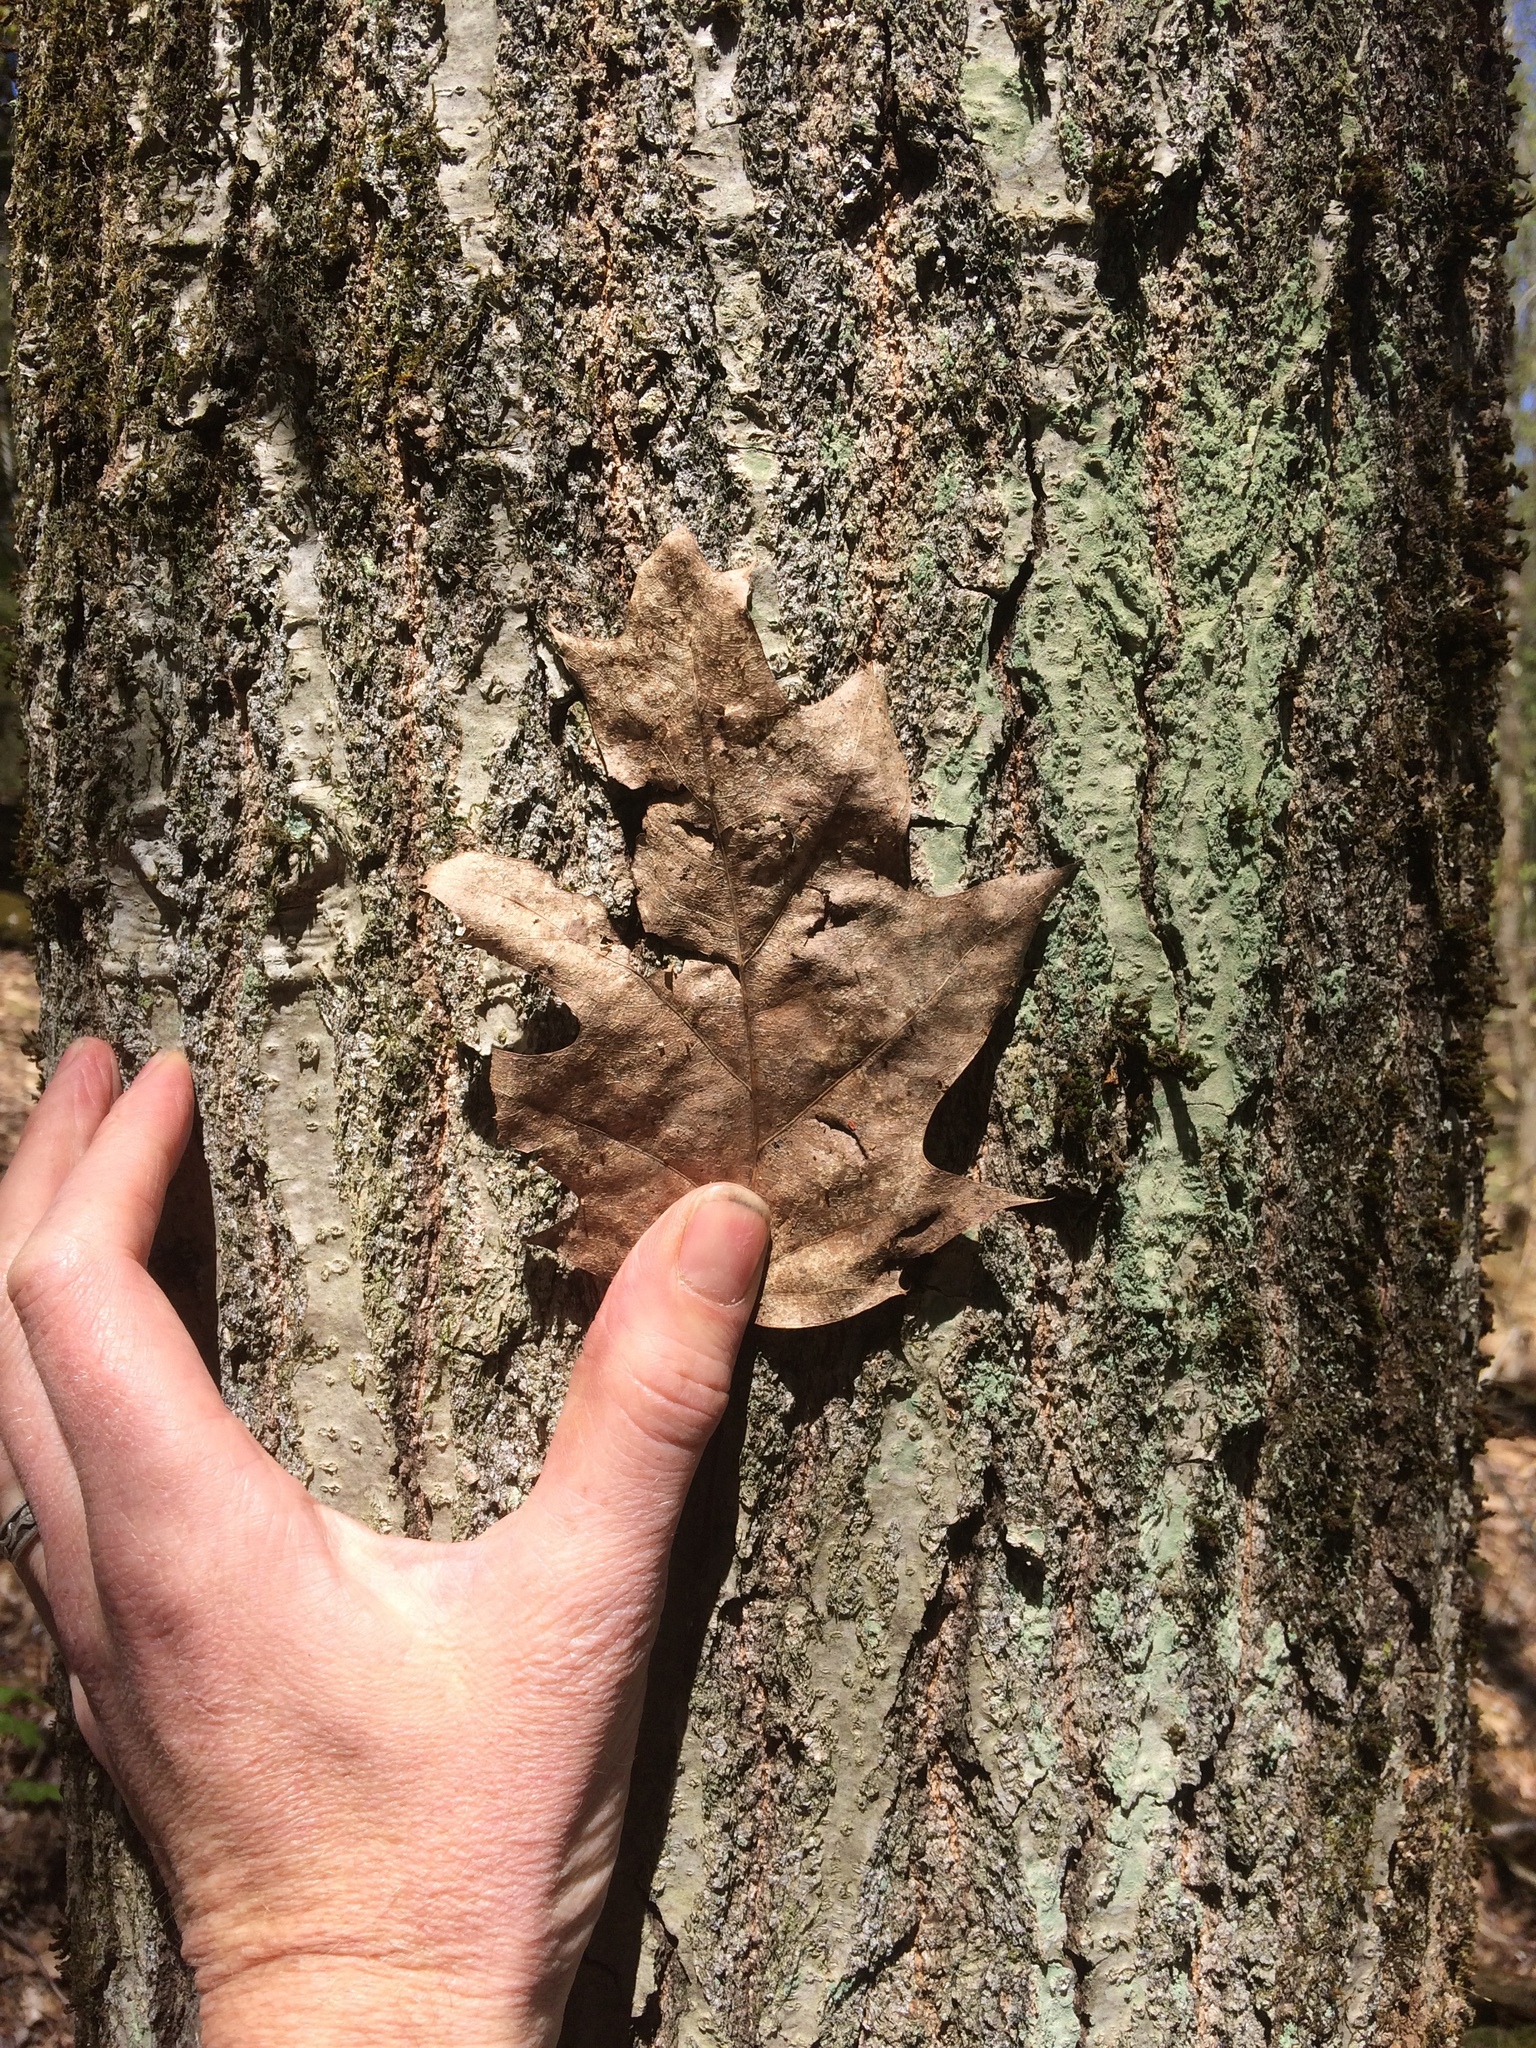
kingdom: Plantae
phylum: Tracheophyta
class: Magnoliopsida
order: Fagales
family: Fagaceae
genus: Quercus
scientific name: Quercus rubra
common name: Red oak
